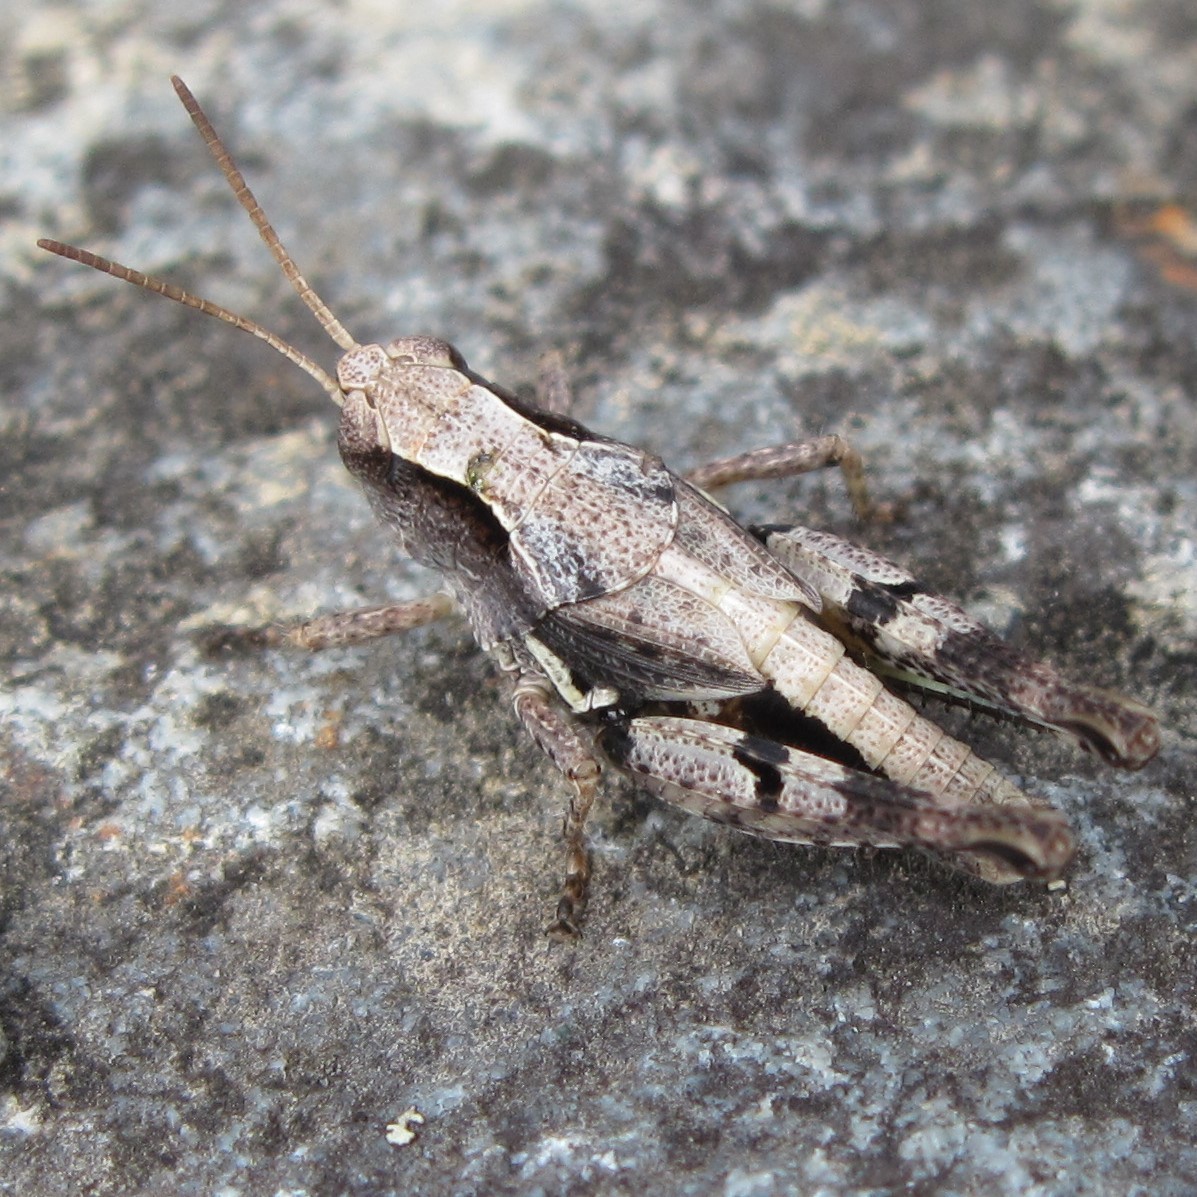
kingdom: Animalia
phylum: Arthropoda
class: Insecta
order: Orthoptera
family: Acrididae
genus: Phaulacridium
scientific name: Phaulacridium marginale
